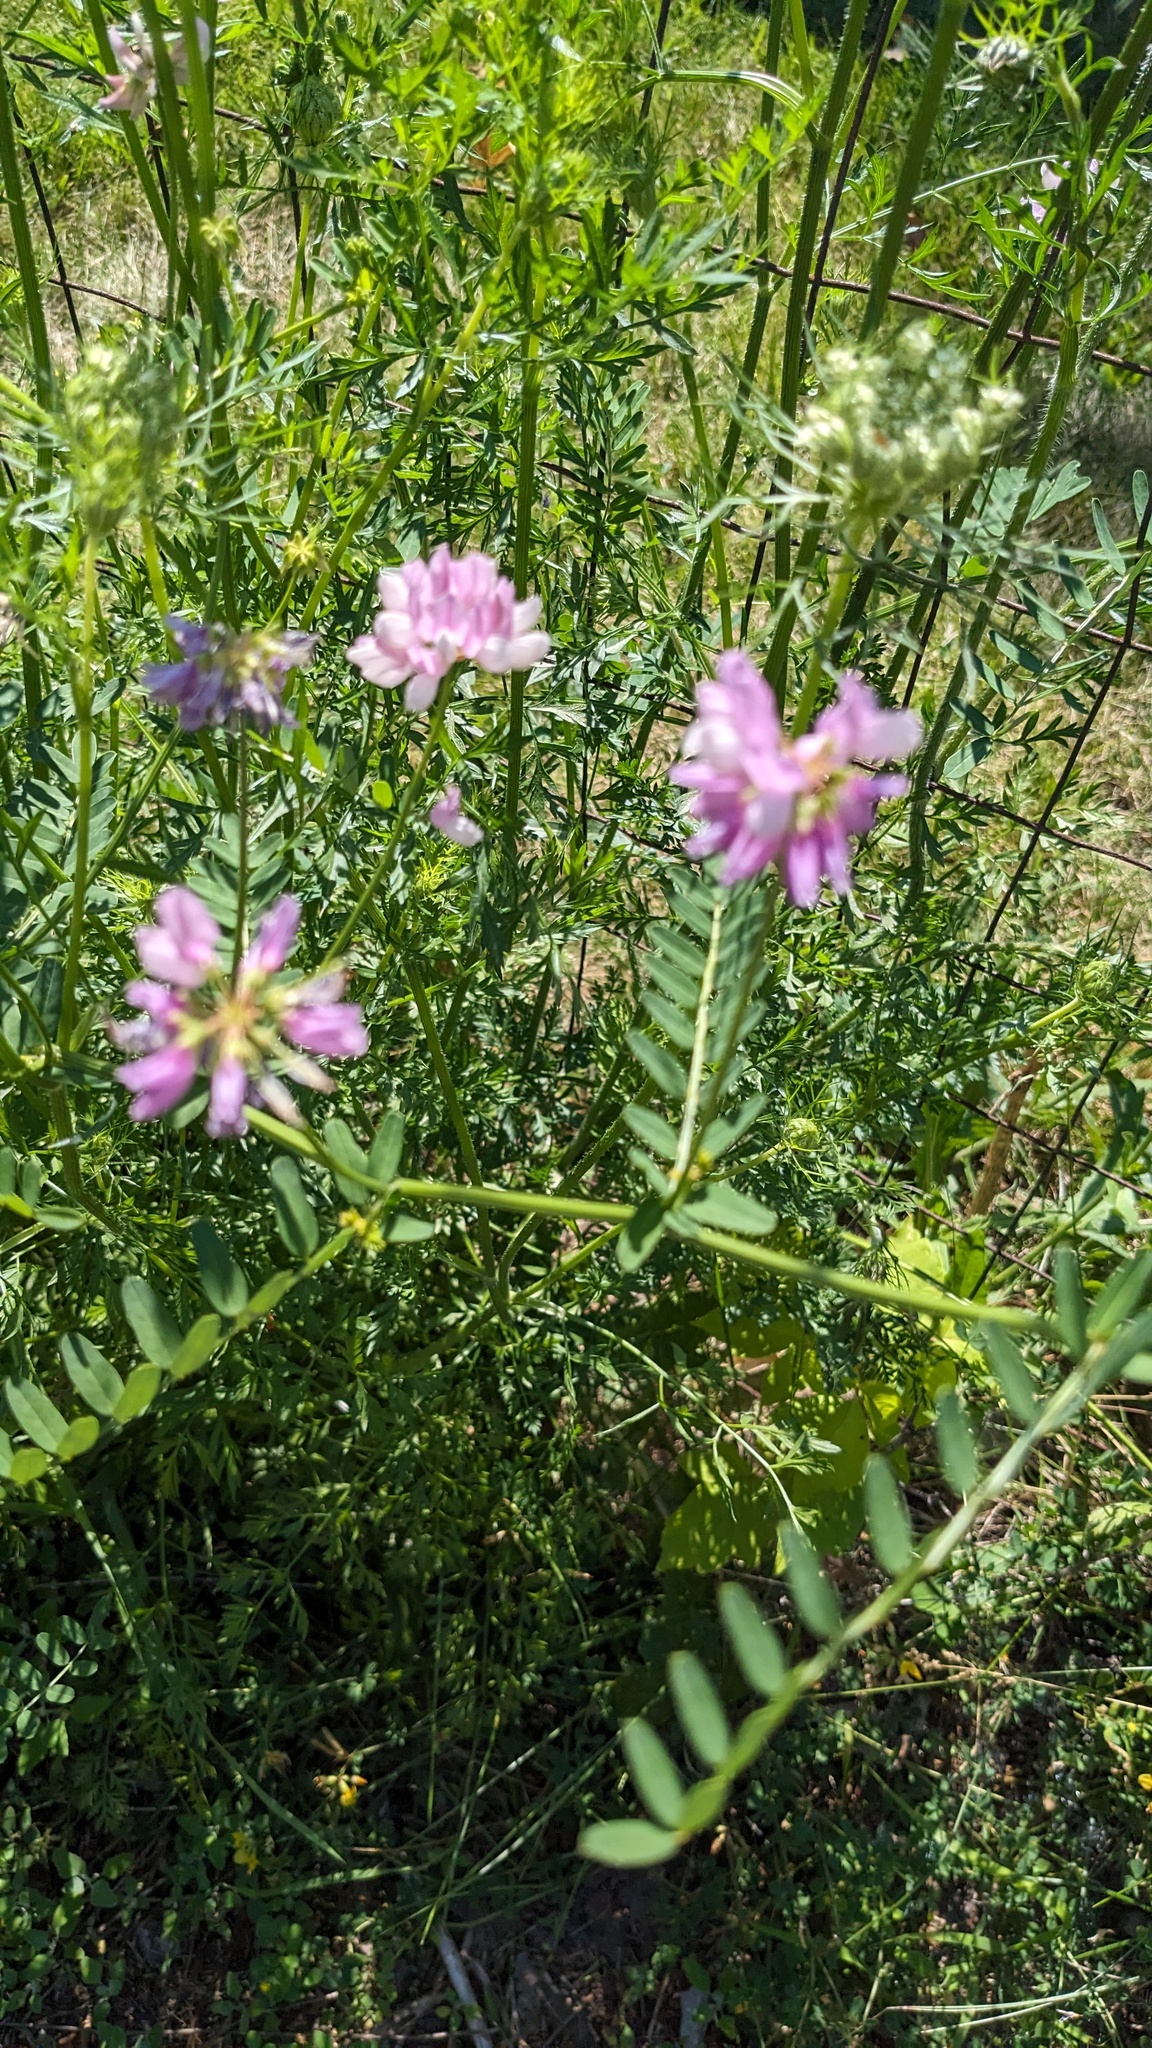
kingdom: Plantae
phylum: Tracheophyta
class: Magnoliopsida
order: Fabales
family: Fabaceae
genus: Coronilla
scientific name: Coronilla varia
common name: Crownvetch
